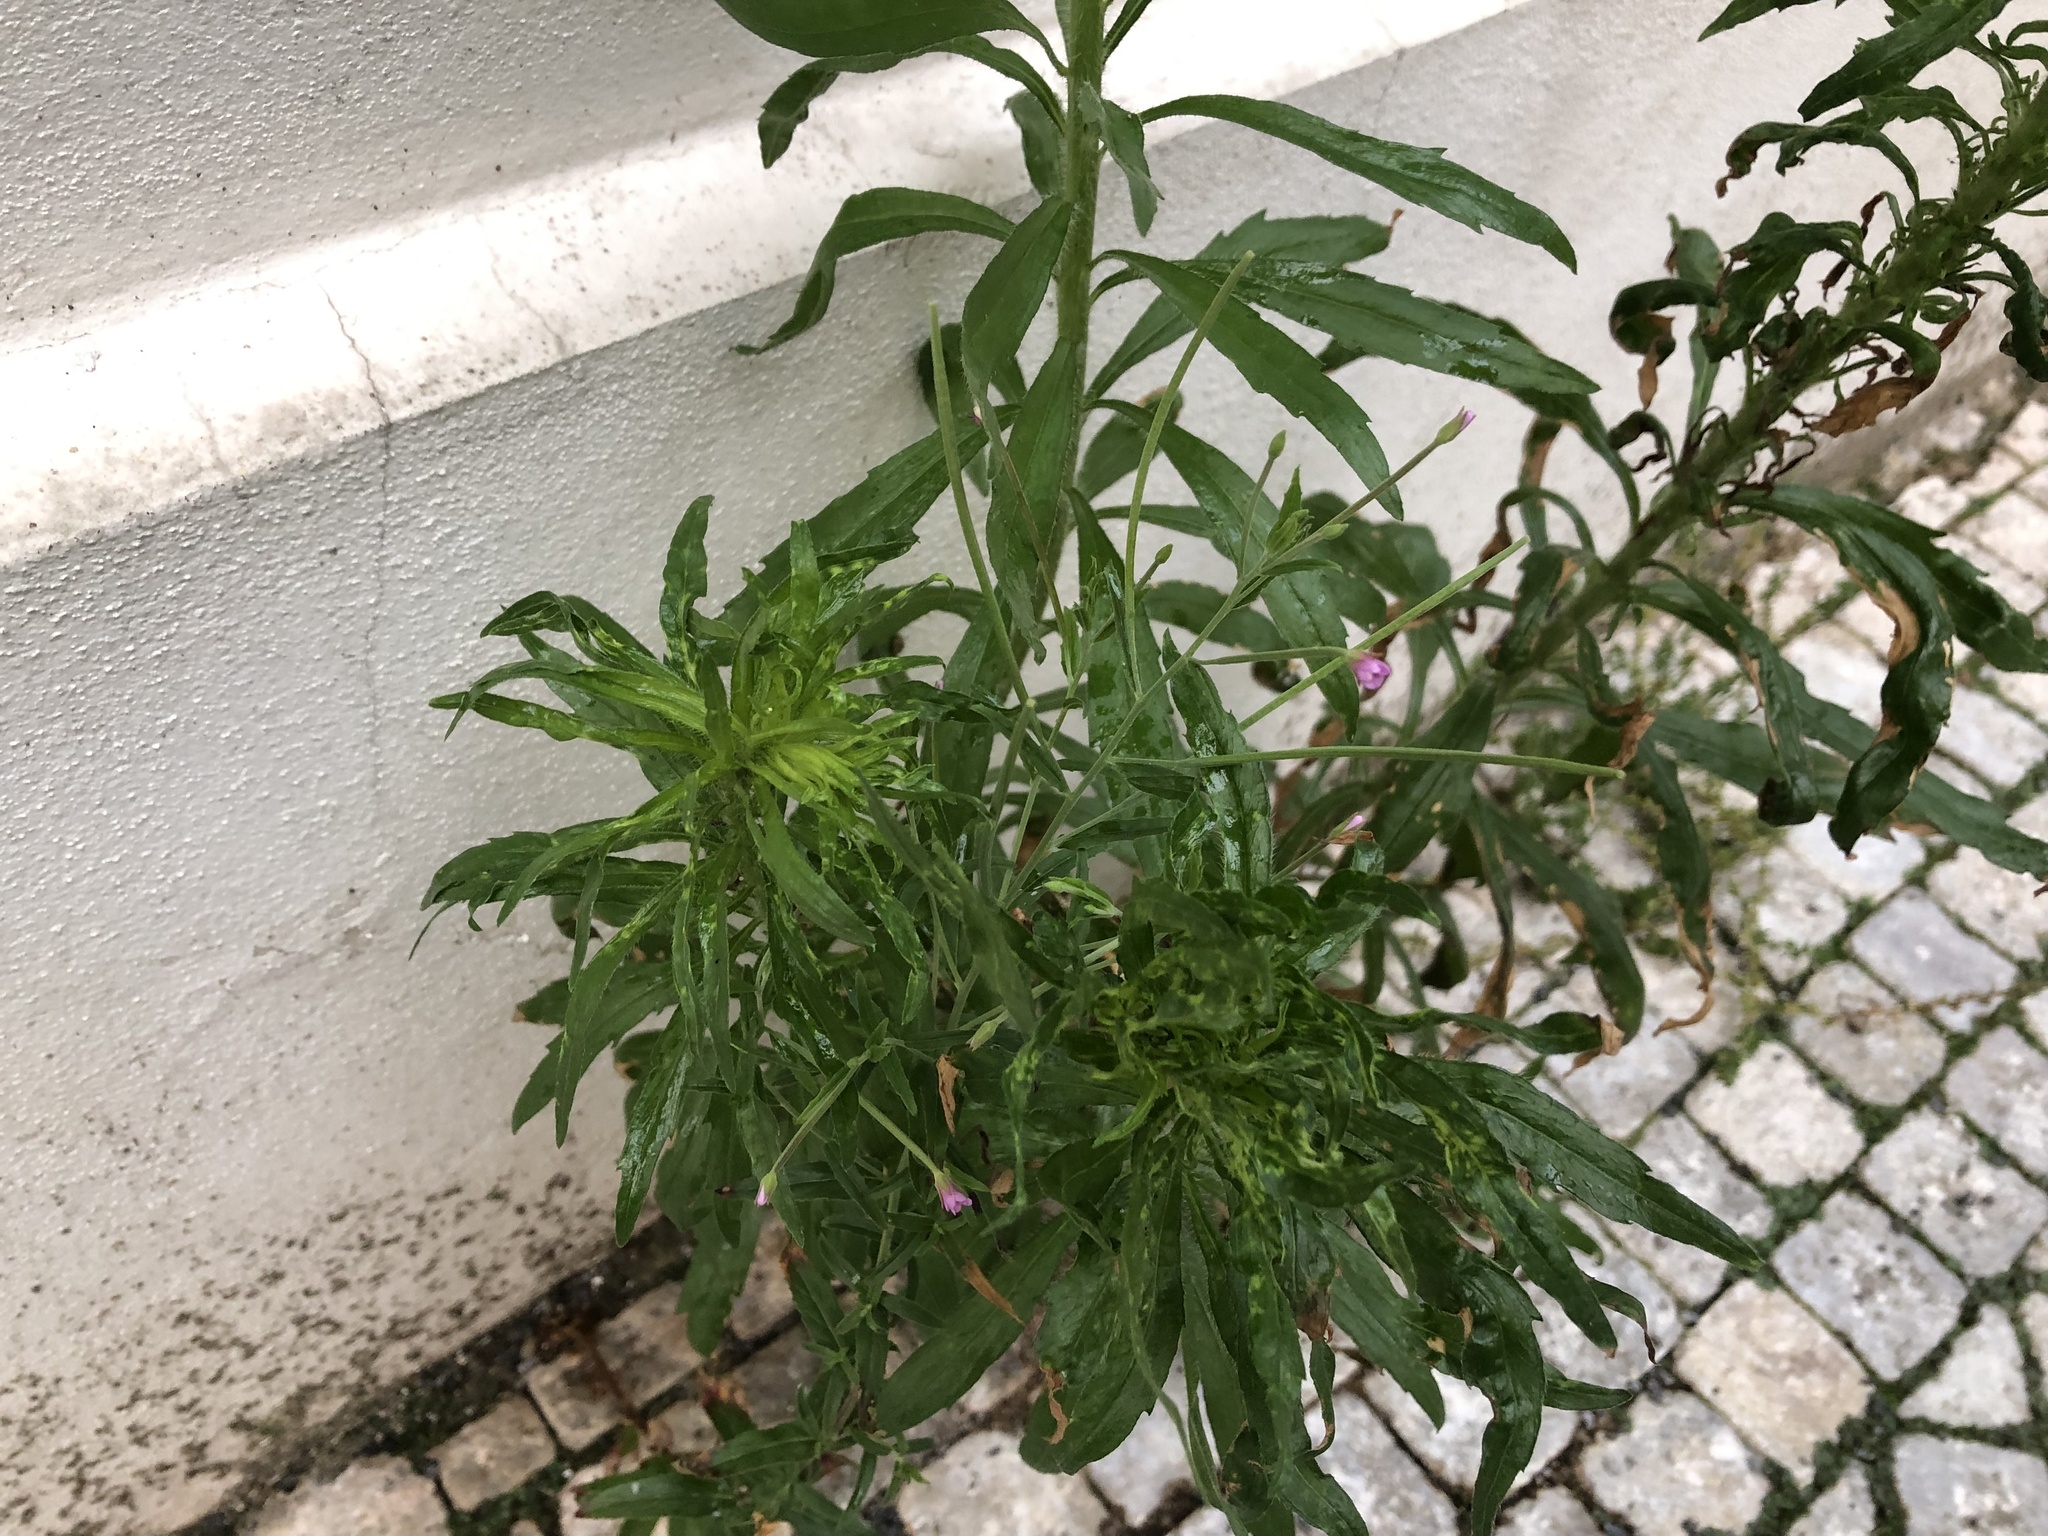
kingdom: Plantae
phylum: Tracheophyta
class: Magnoliopsida
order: Myrtales
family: Onagraceae
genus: Epilobium
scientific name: Epilobium tetragonum
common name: Square-stemmed willowherb
